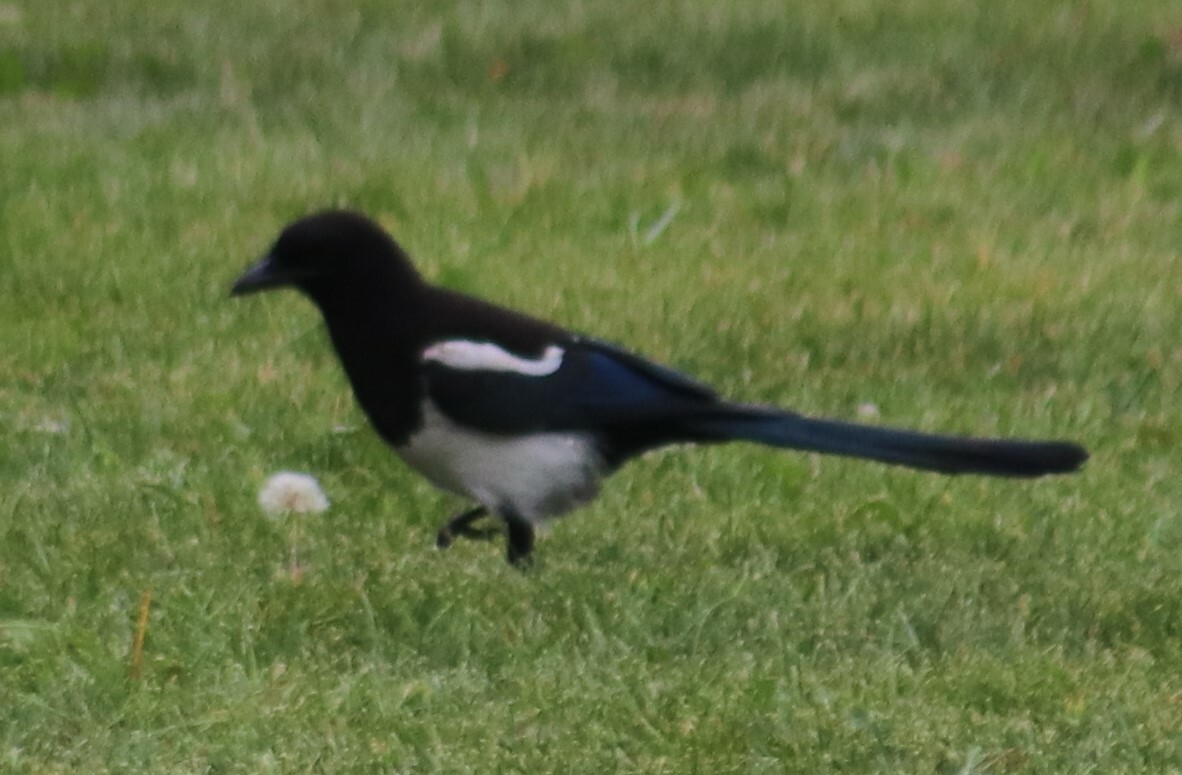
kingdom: Animalia
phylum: Chordata
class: Aves
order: Passeriformes
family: Corvidae
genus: Pica
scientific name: Pica hudsonia
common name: Black-billed magpie
